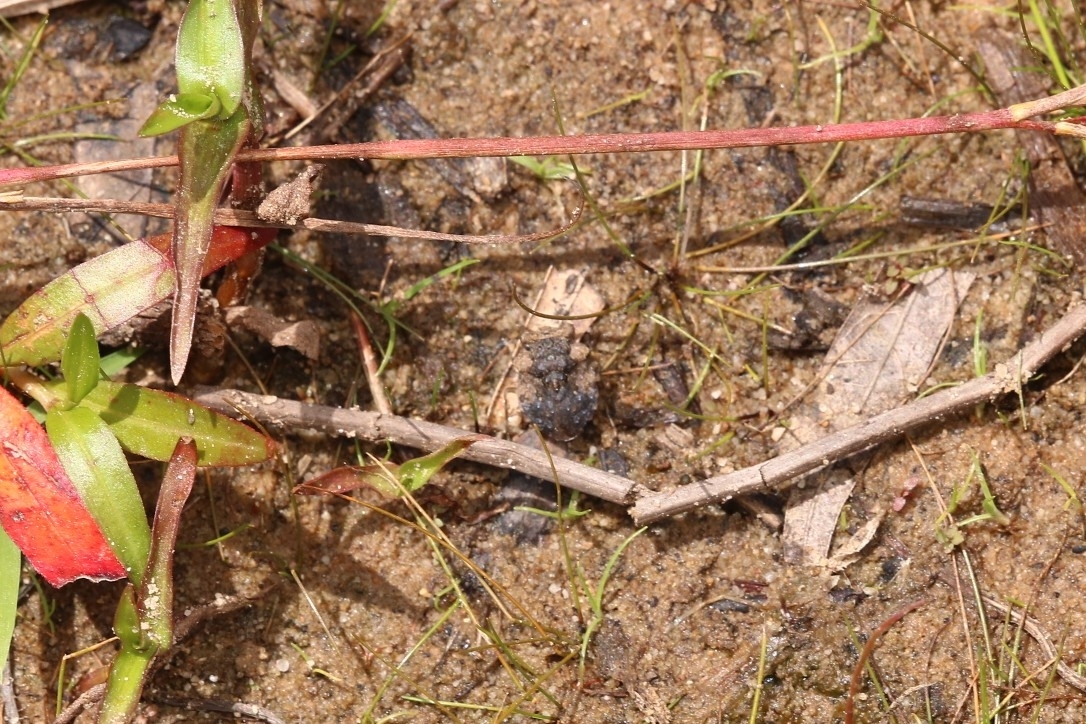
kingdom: Animalia
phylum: Arthropoda
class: Insecta
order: Hemiptera
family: Gelastocoridae
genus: Gelastocoris
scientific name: Gelastocoris oculatus
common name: Toad bug
